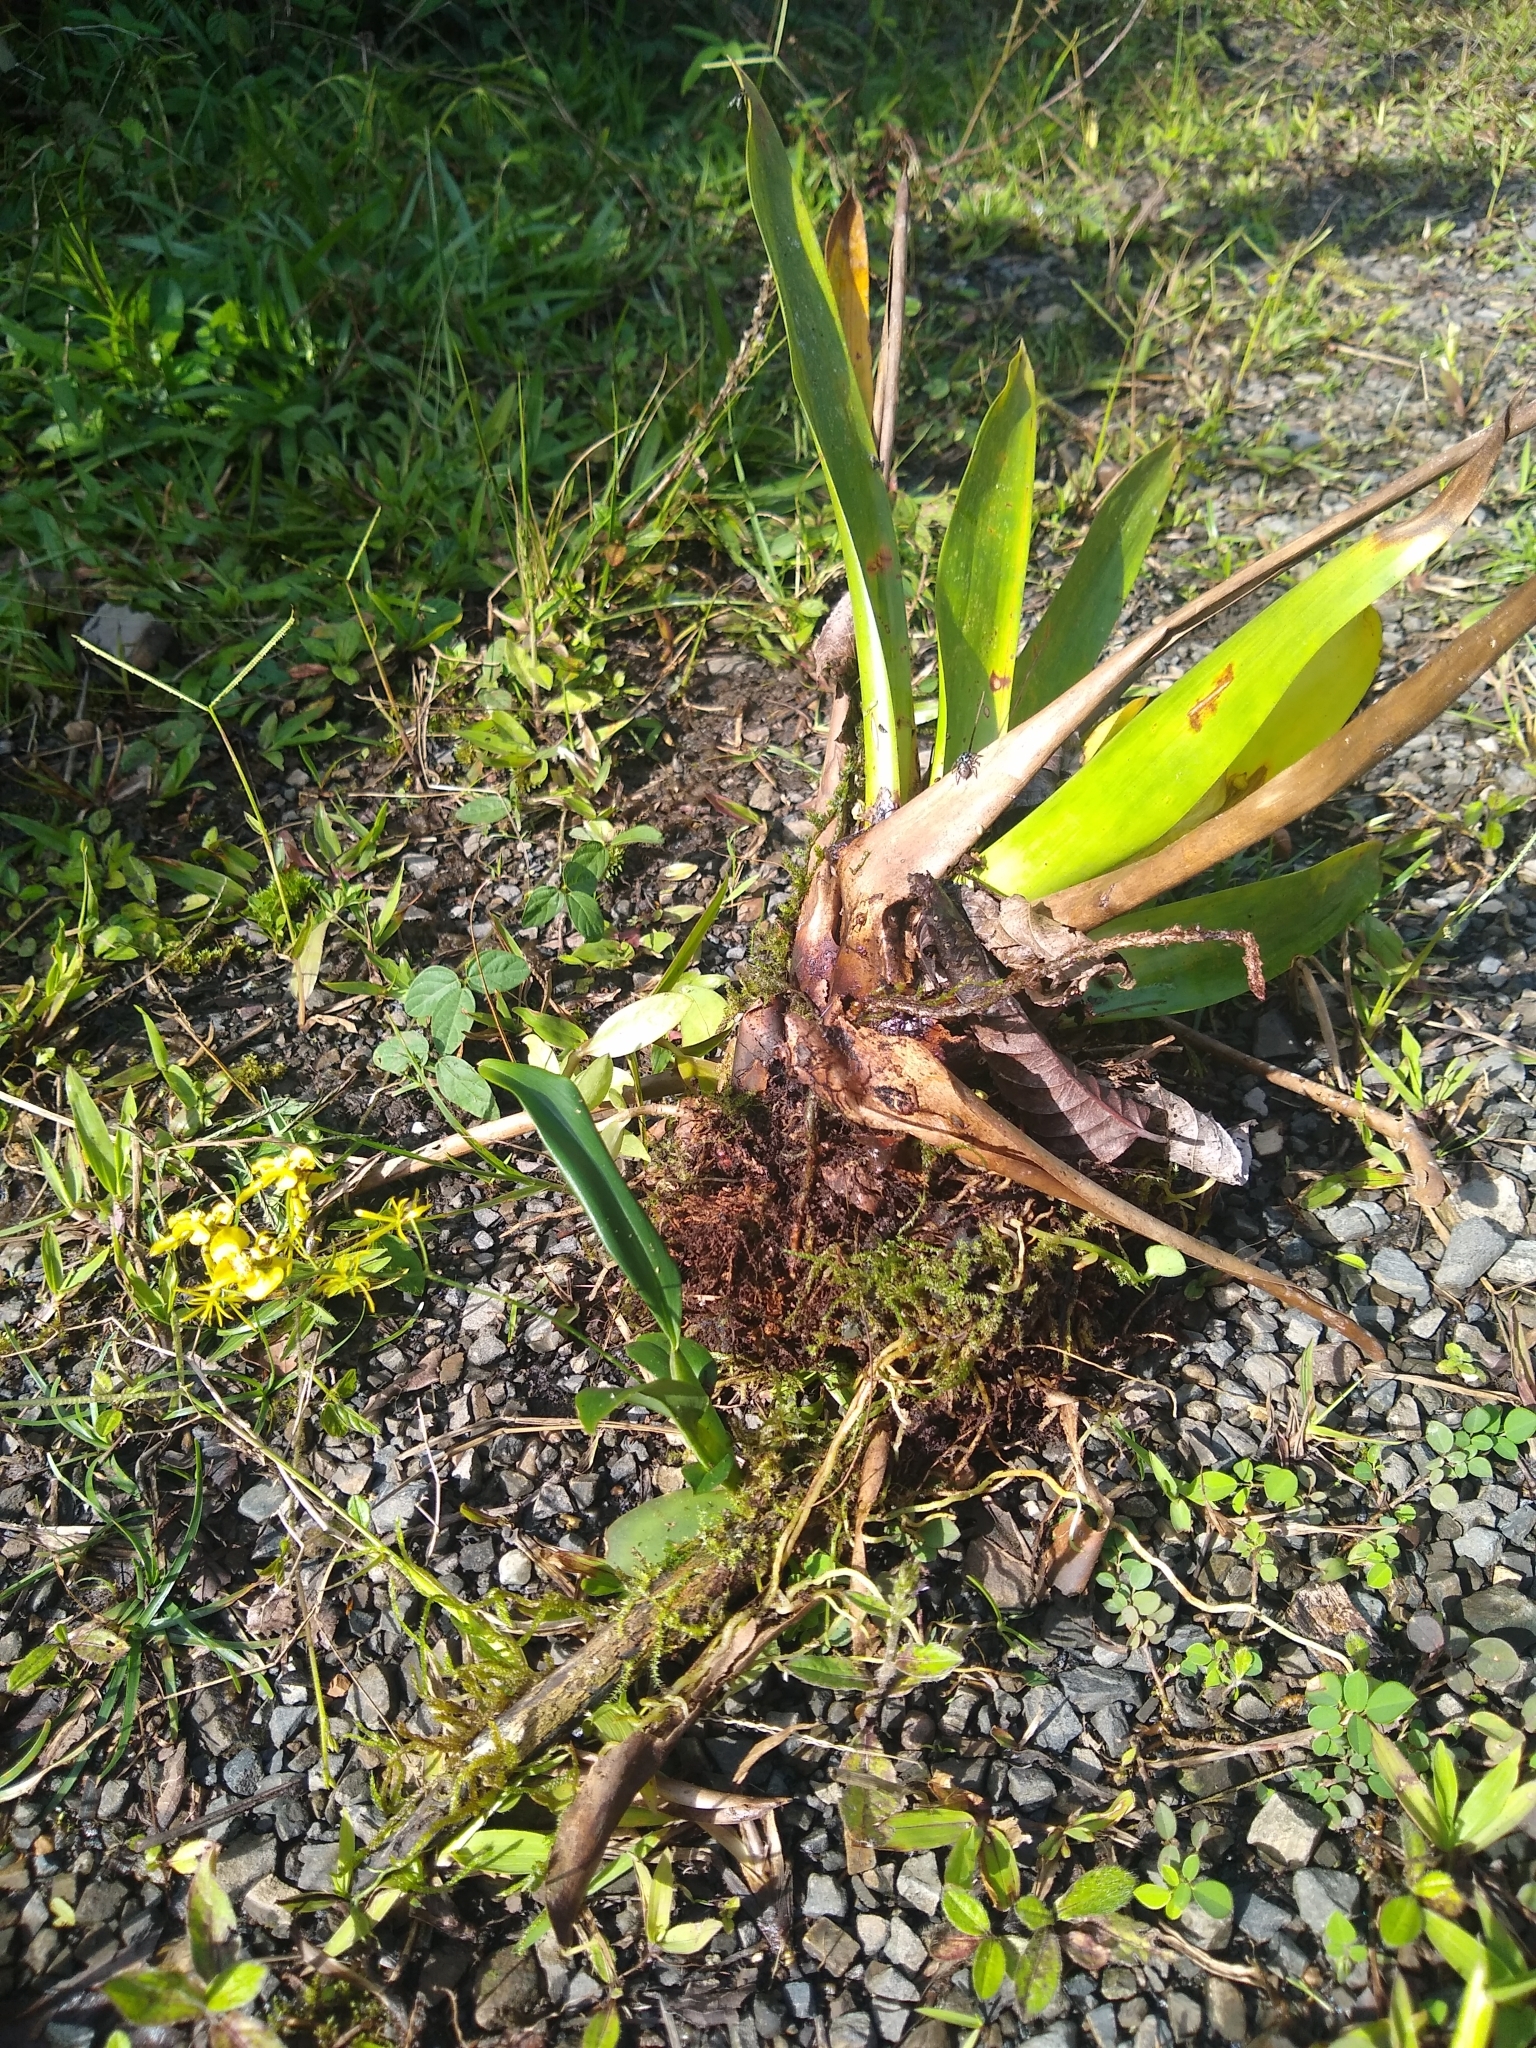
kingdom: Plantae
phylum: Tracheophyta
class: Liliopsida
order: Asparagales
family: Orchidaceae
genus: Oncidium
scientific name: Oncidium abortivum
